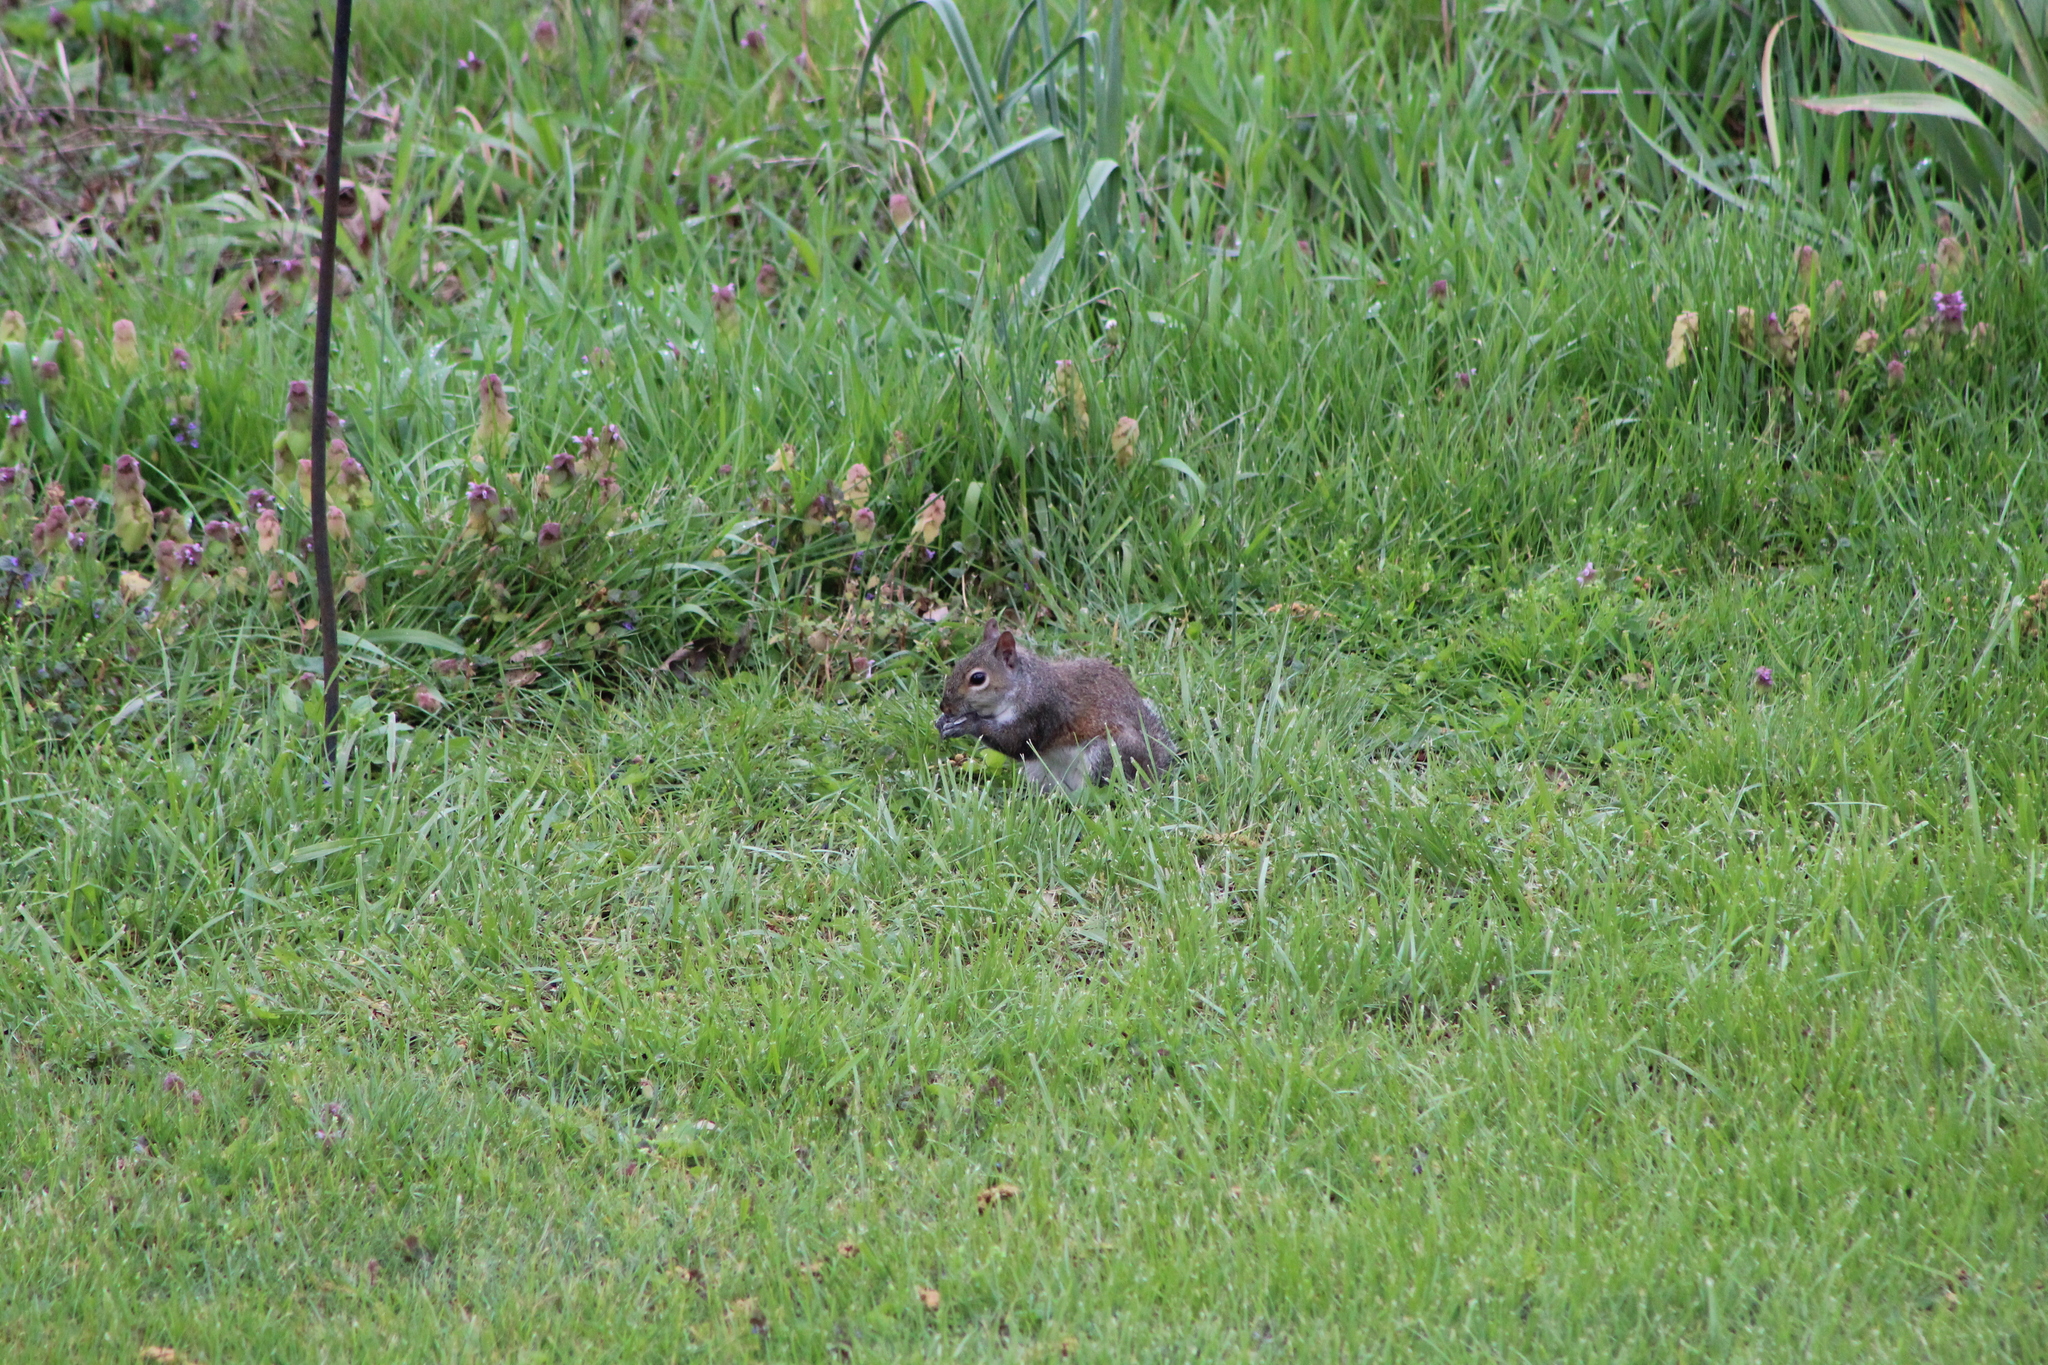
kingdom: Animalia
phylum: Chordata
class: Mammalia
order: Rodentia
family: Sciuridae
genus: Sciurus
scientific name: Sciurus carolinensis
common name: Eastern gray squirrel
